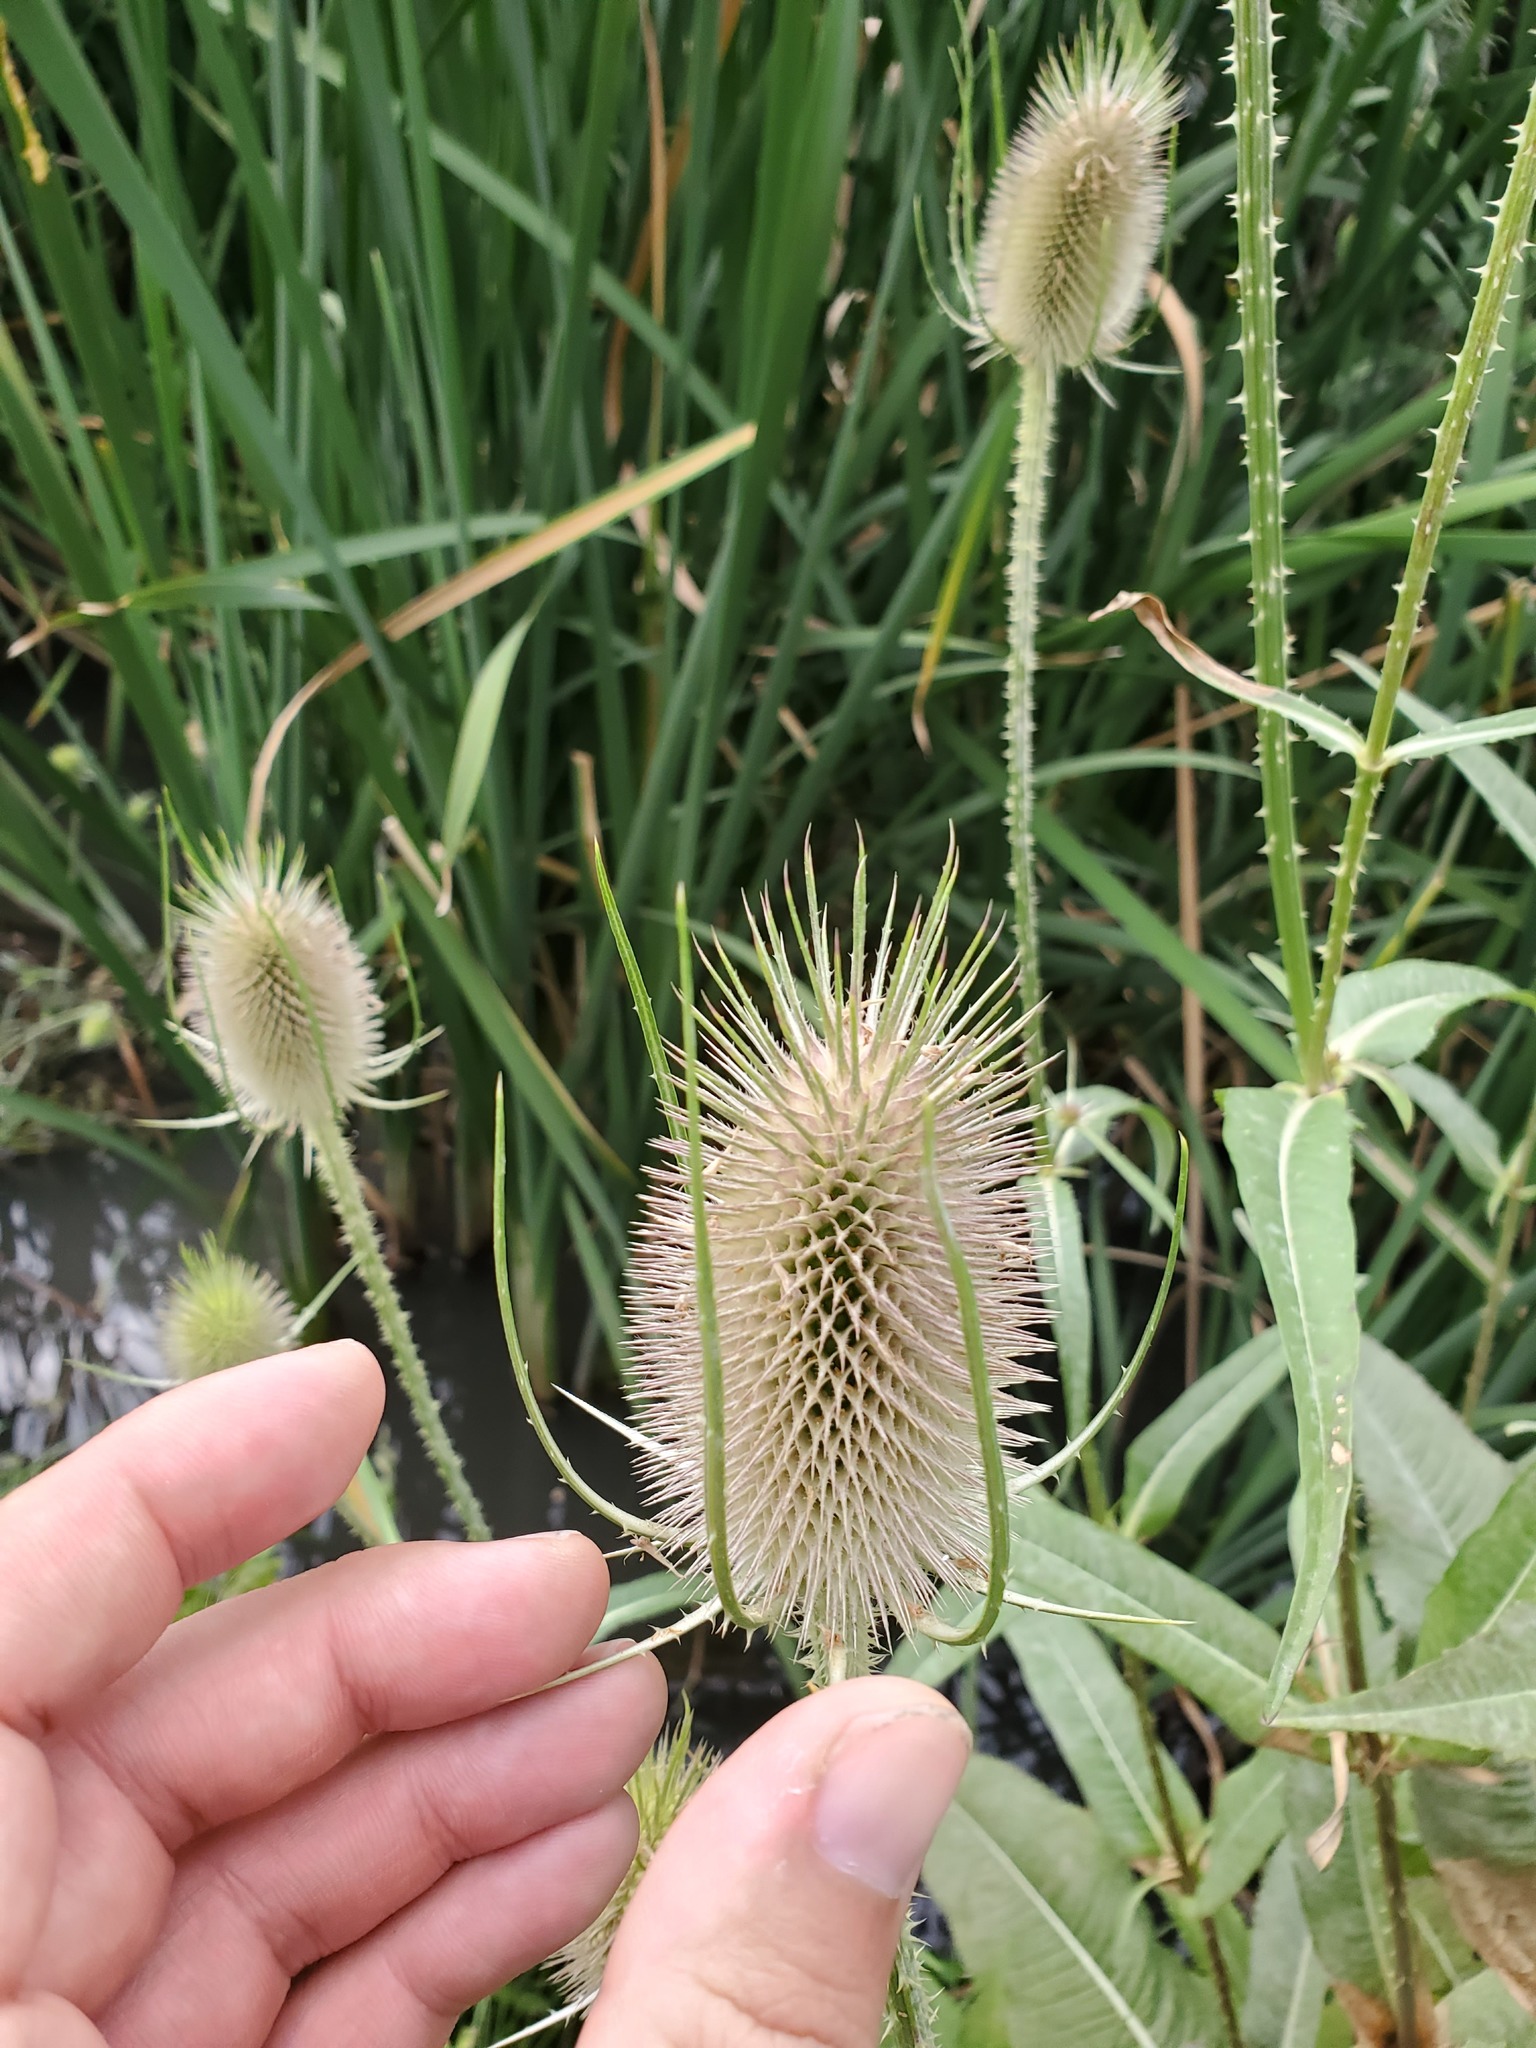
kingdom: Plantae
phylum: Tracheophyta
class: Magnoliopsida
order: Dipsacales
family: Caprifoliaceae
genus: Dipsacus
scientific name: Dipsacus fullonum
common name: Teasel
